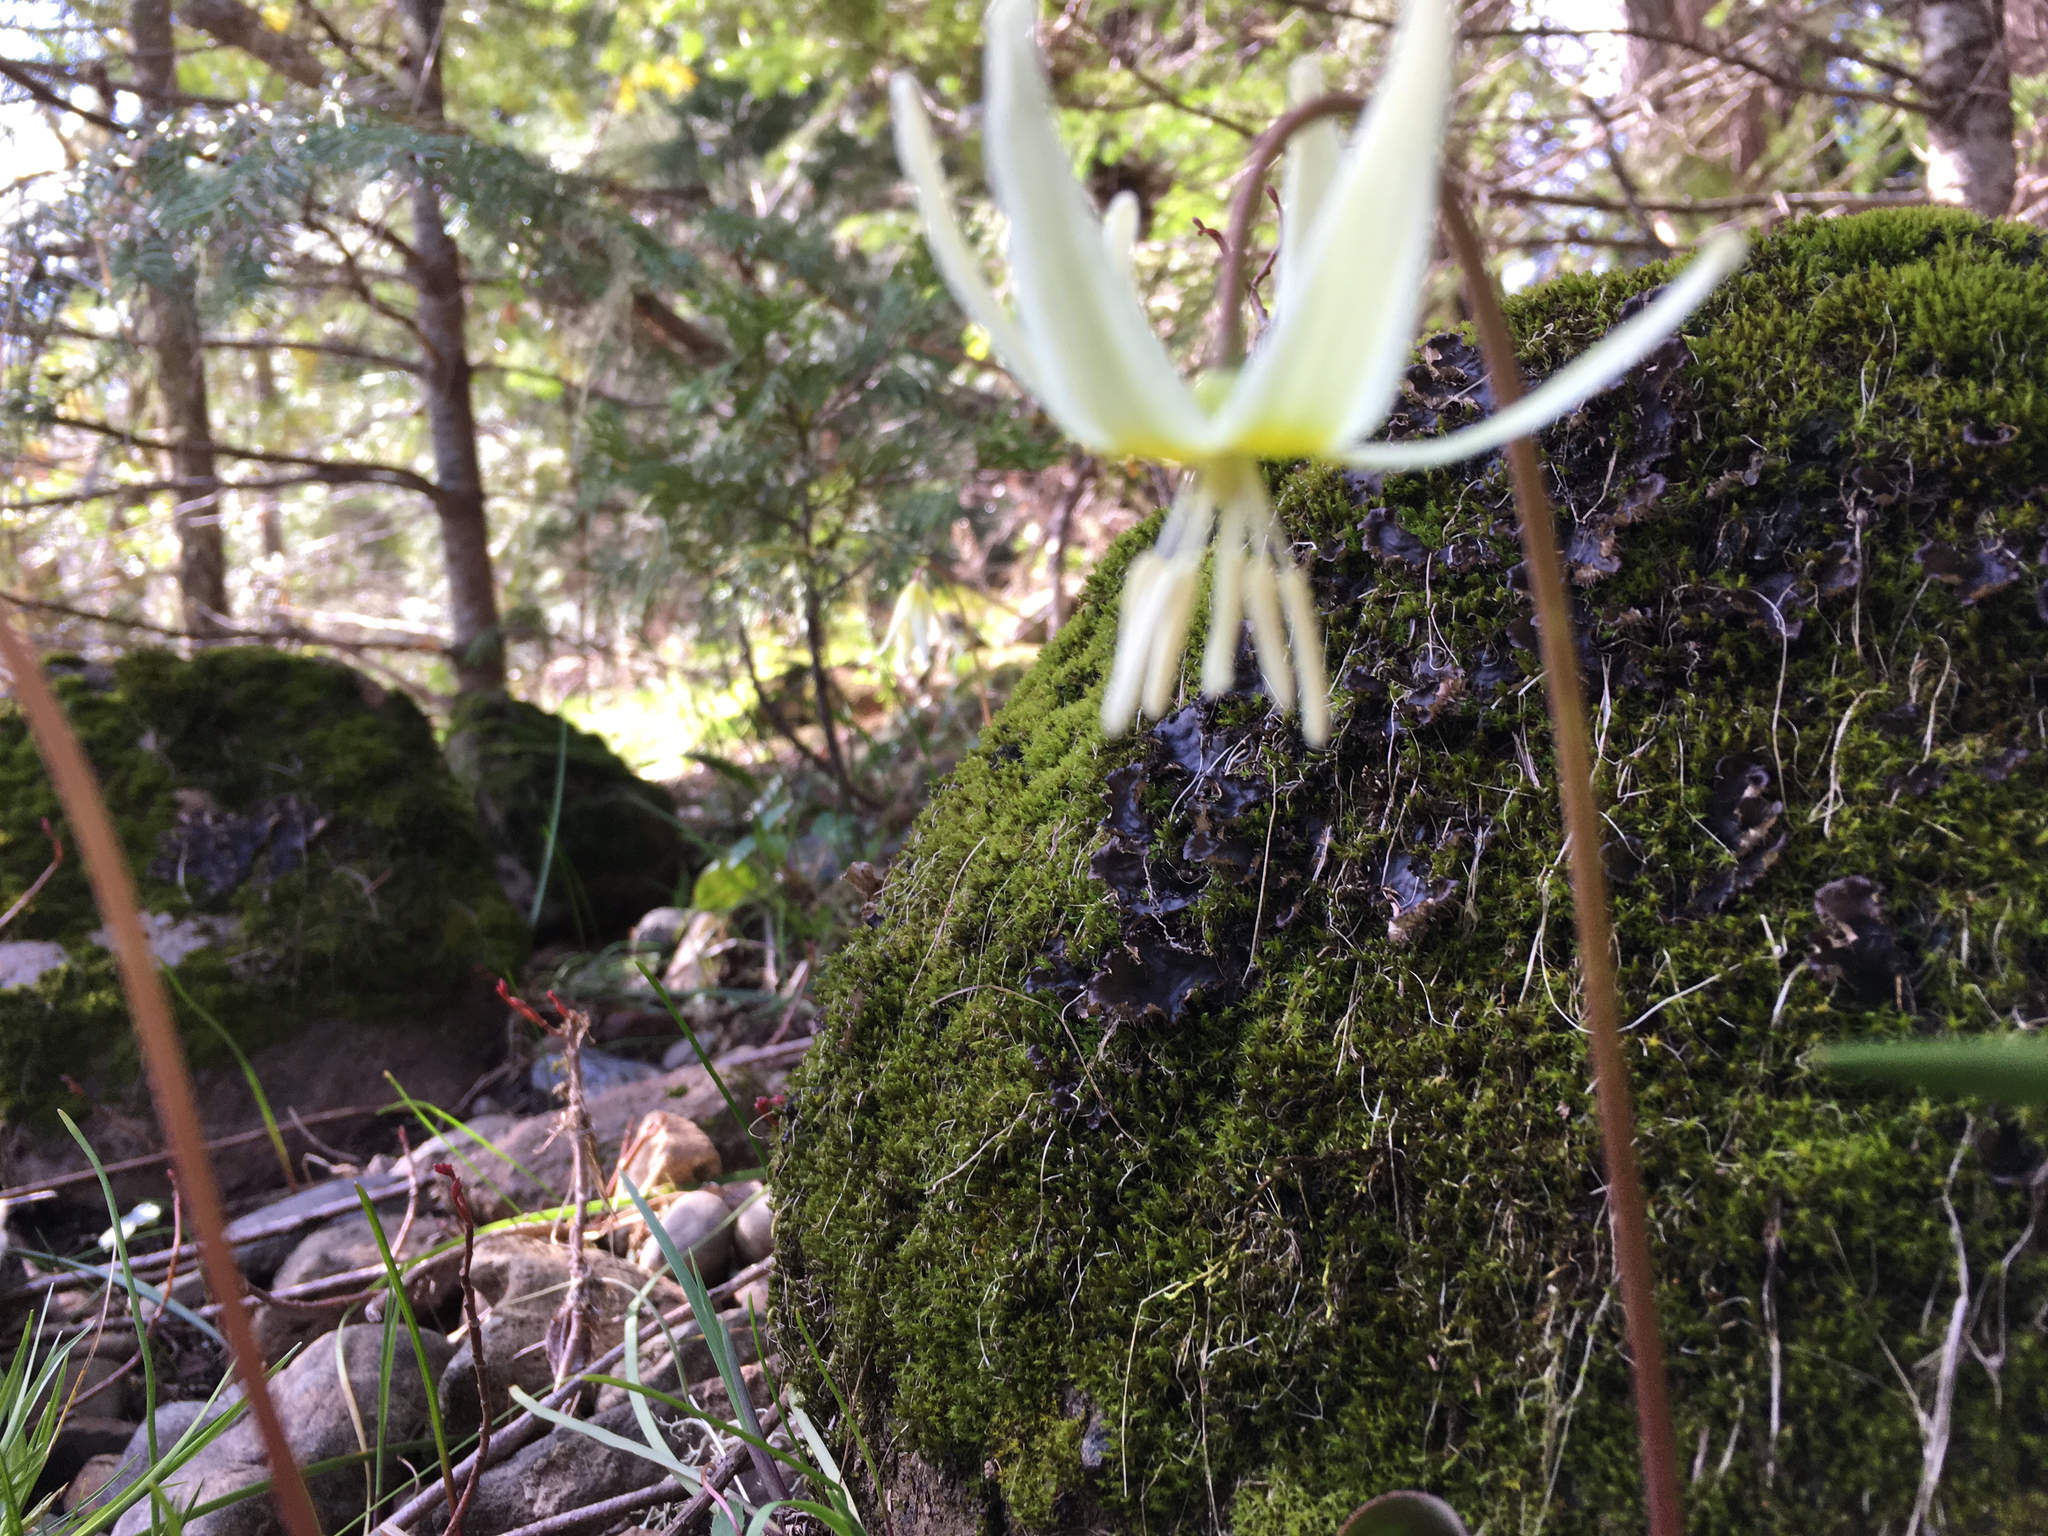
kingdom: Plantae
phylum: Tracheophyta
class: Liliopsida
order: Liliales
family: Liliaceae
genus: Erythronium
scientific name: Erythronium citrinum
